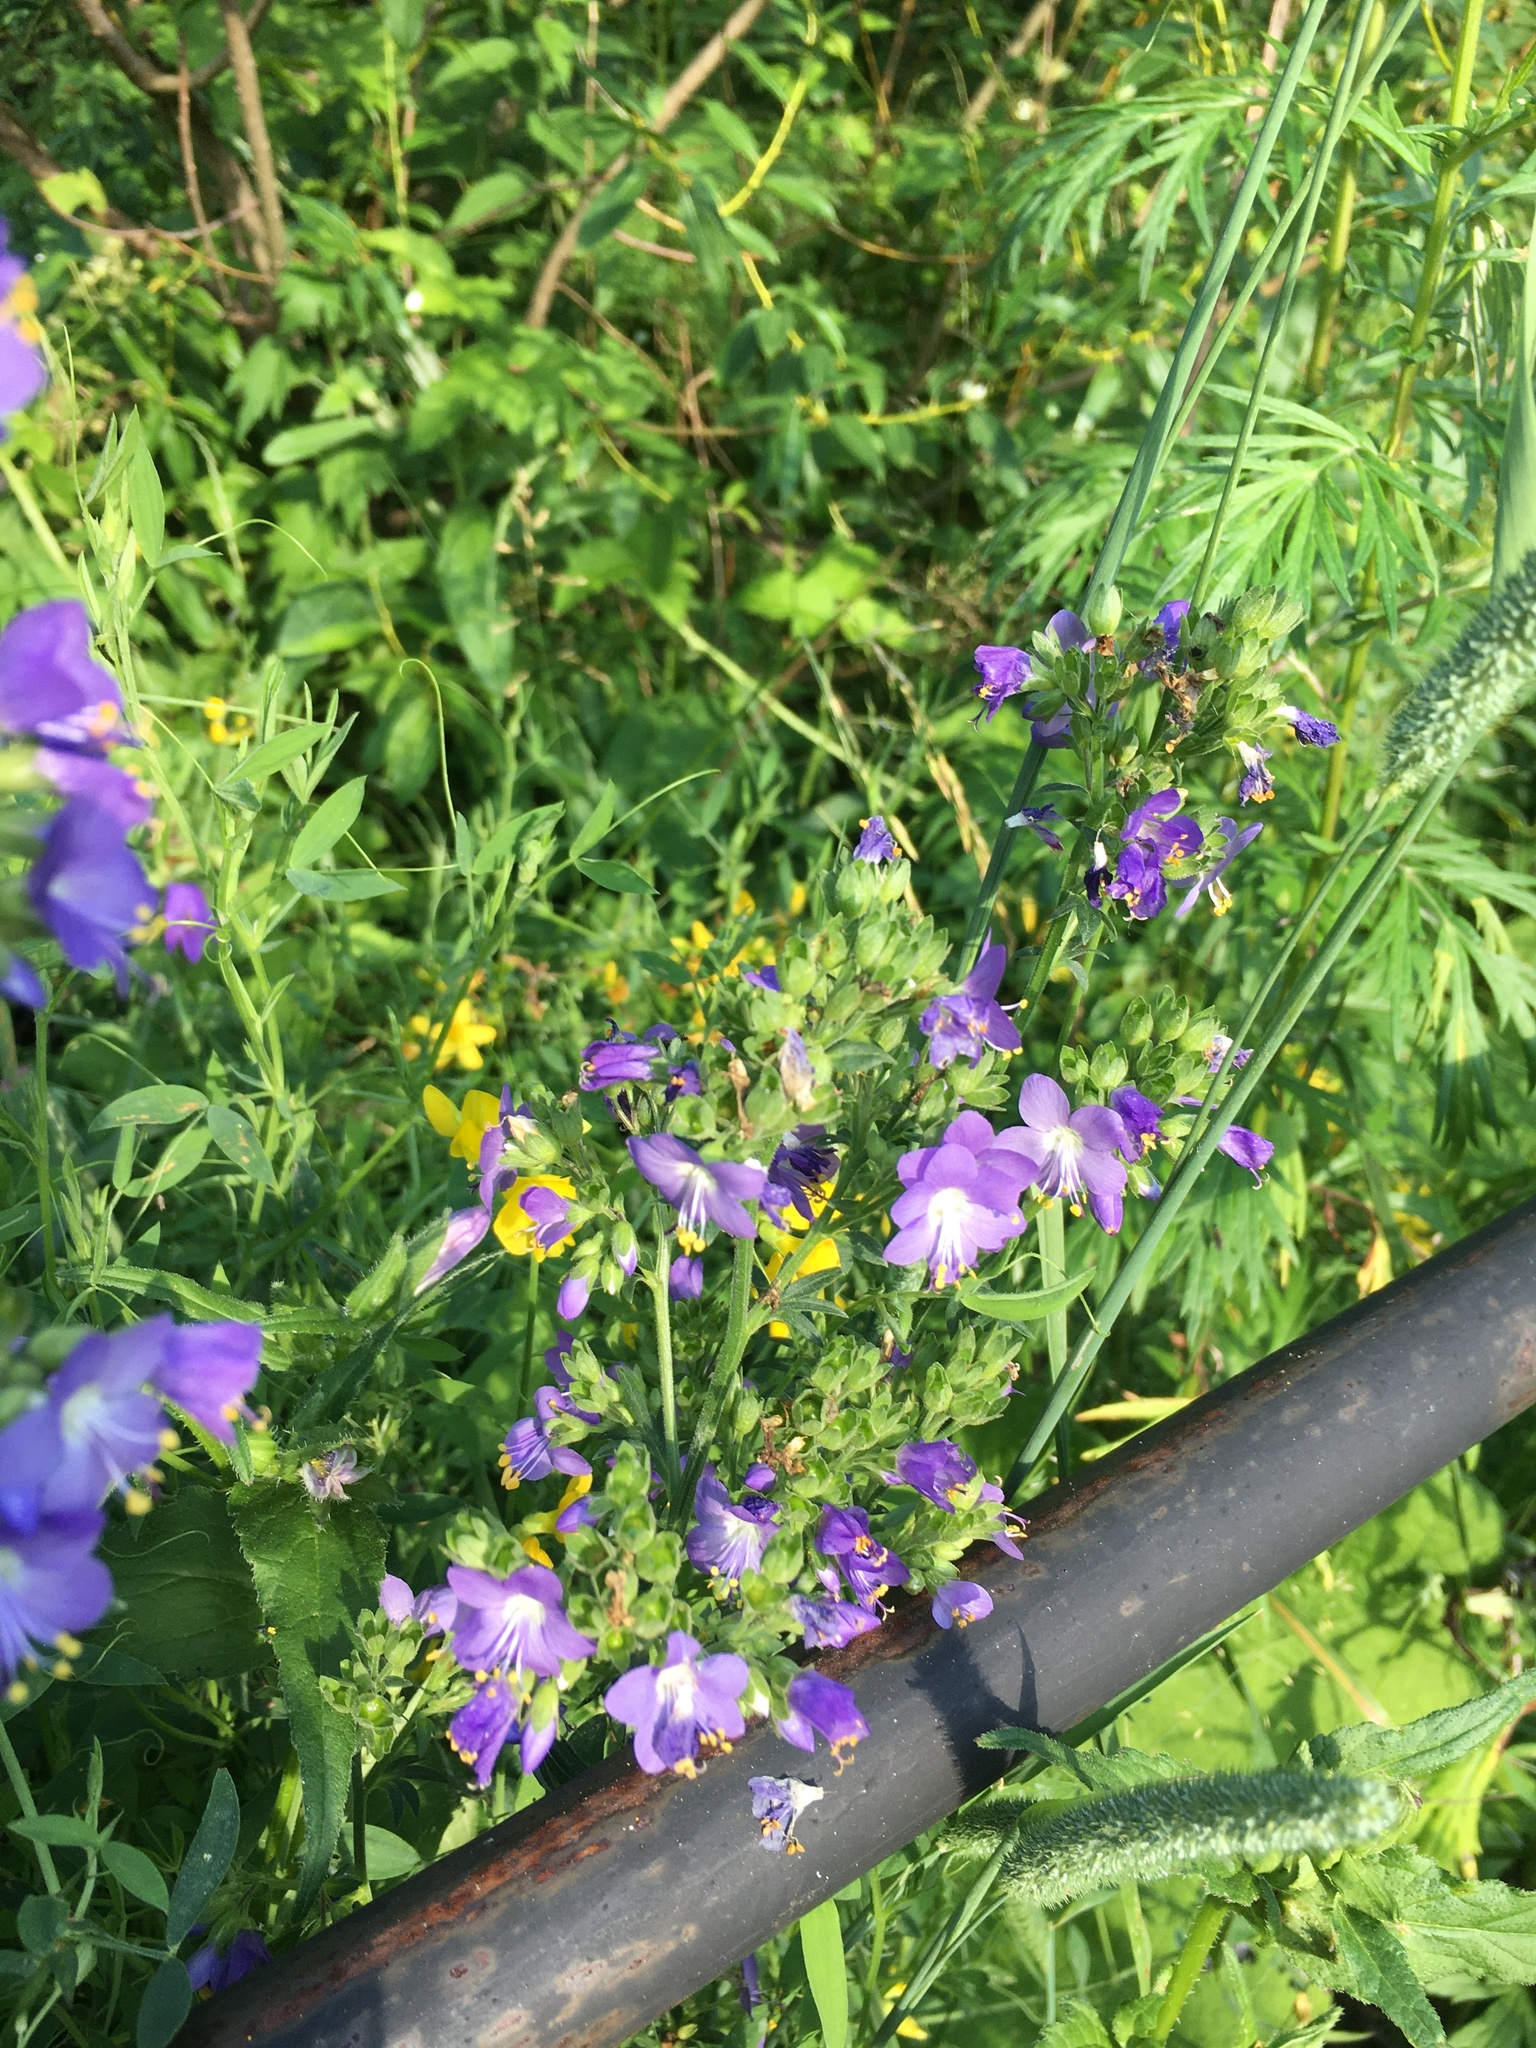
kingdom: Plantae
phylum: Tracheophyta
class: Magnoliopsida
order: Ericales
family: Polemoniaceae
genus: Polemonium
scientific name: Polemonium caeruleum
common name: Jacob's-ladder
